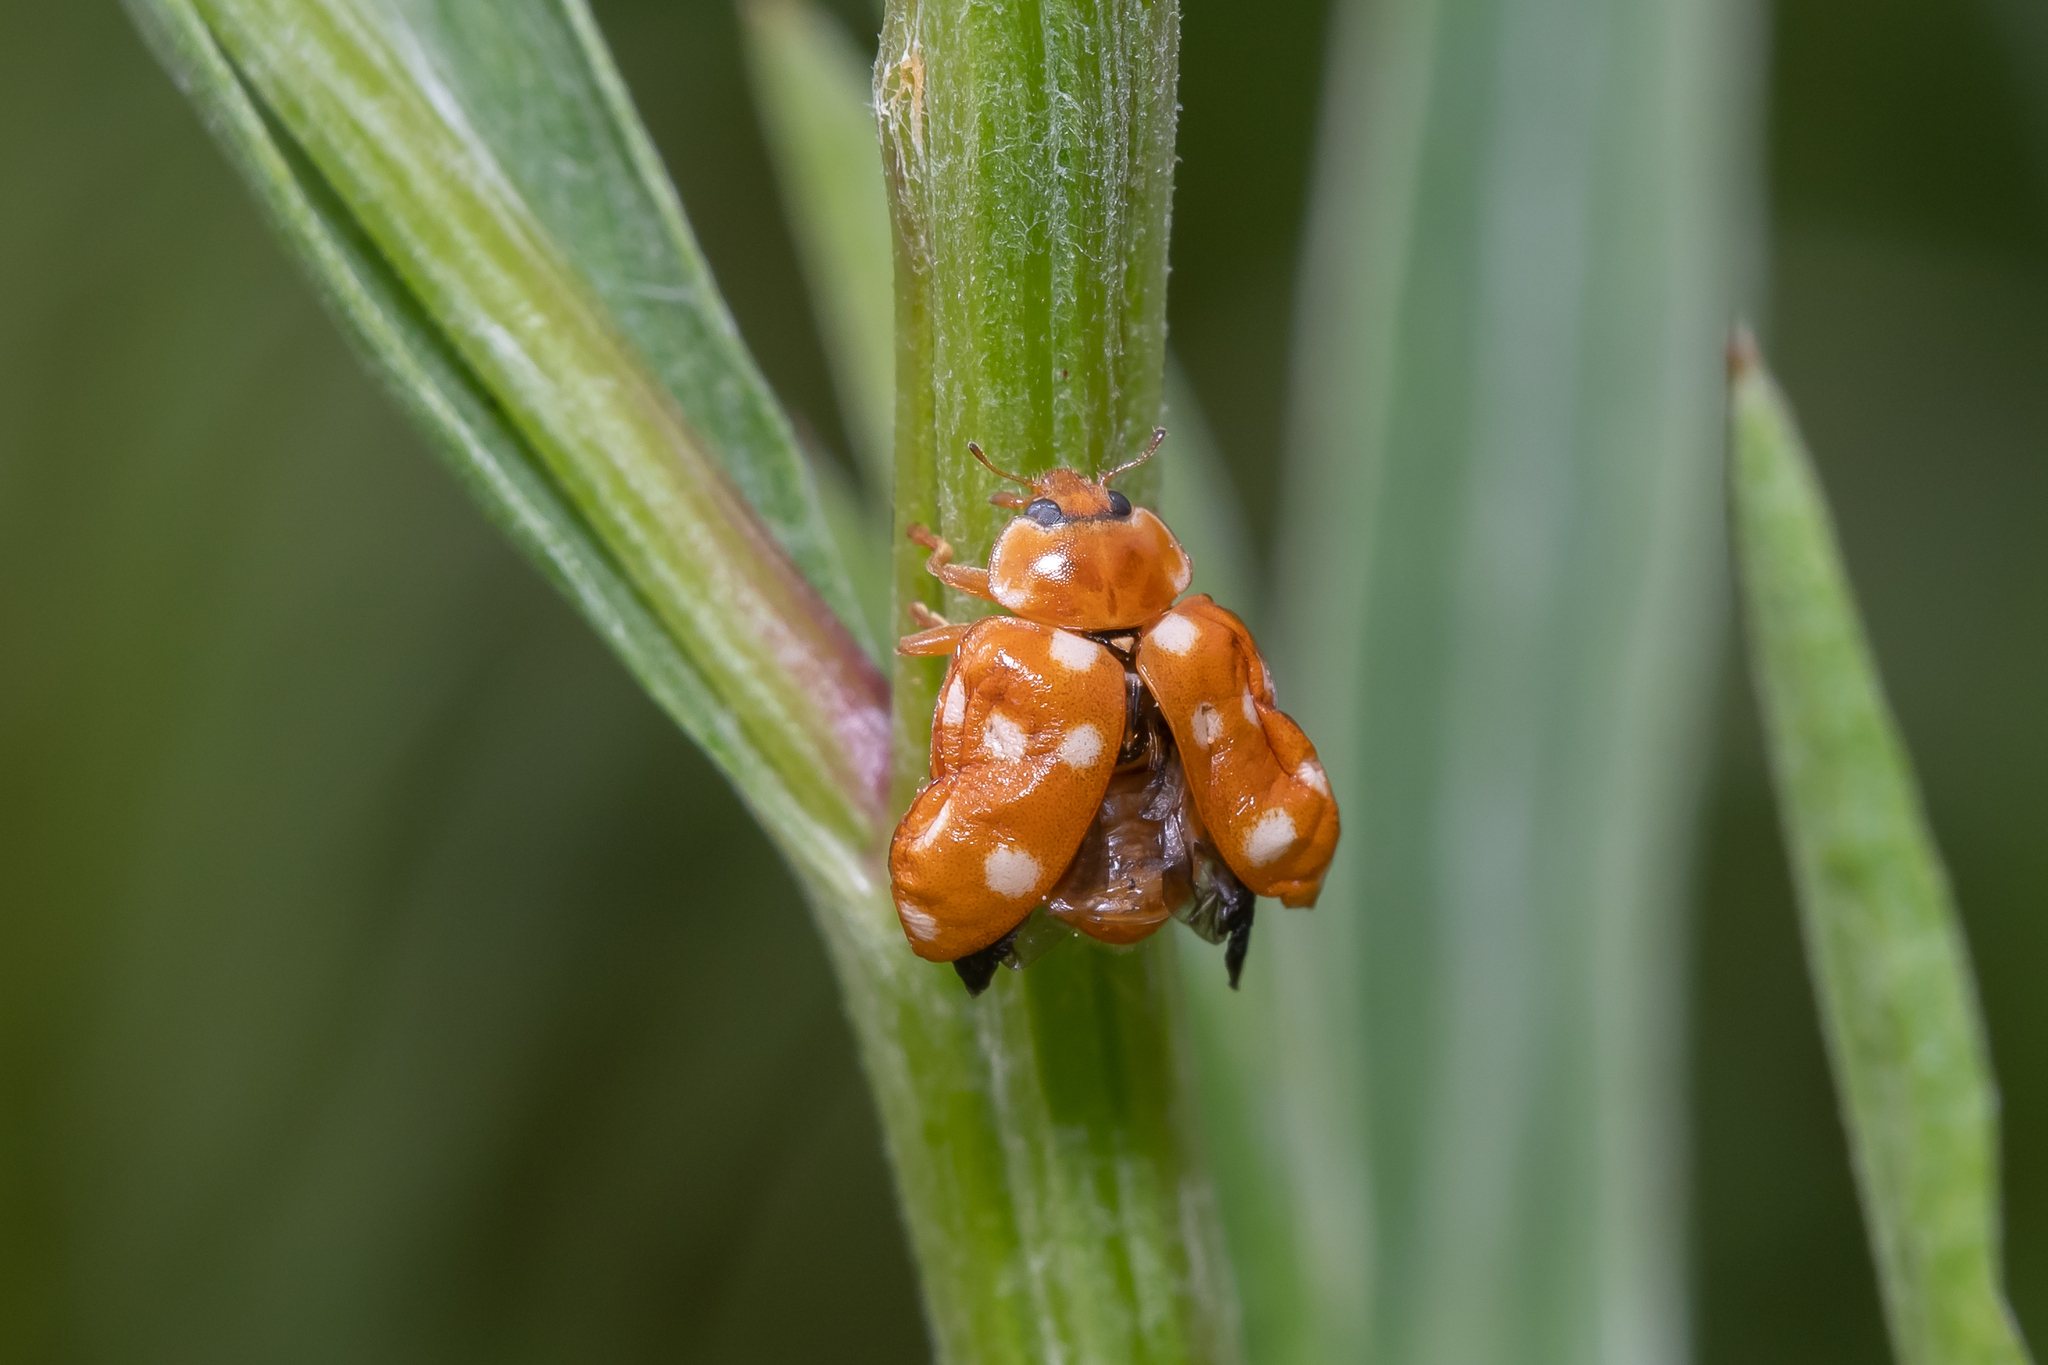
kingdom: Animalia
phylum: Arthropoda
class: Insecta
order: Coleoptera
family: Coccinellidae
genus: Calvia
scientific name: Calvia quatuordecimguttata
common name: Cream-spot ladybird
